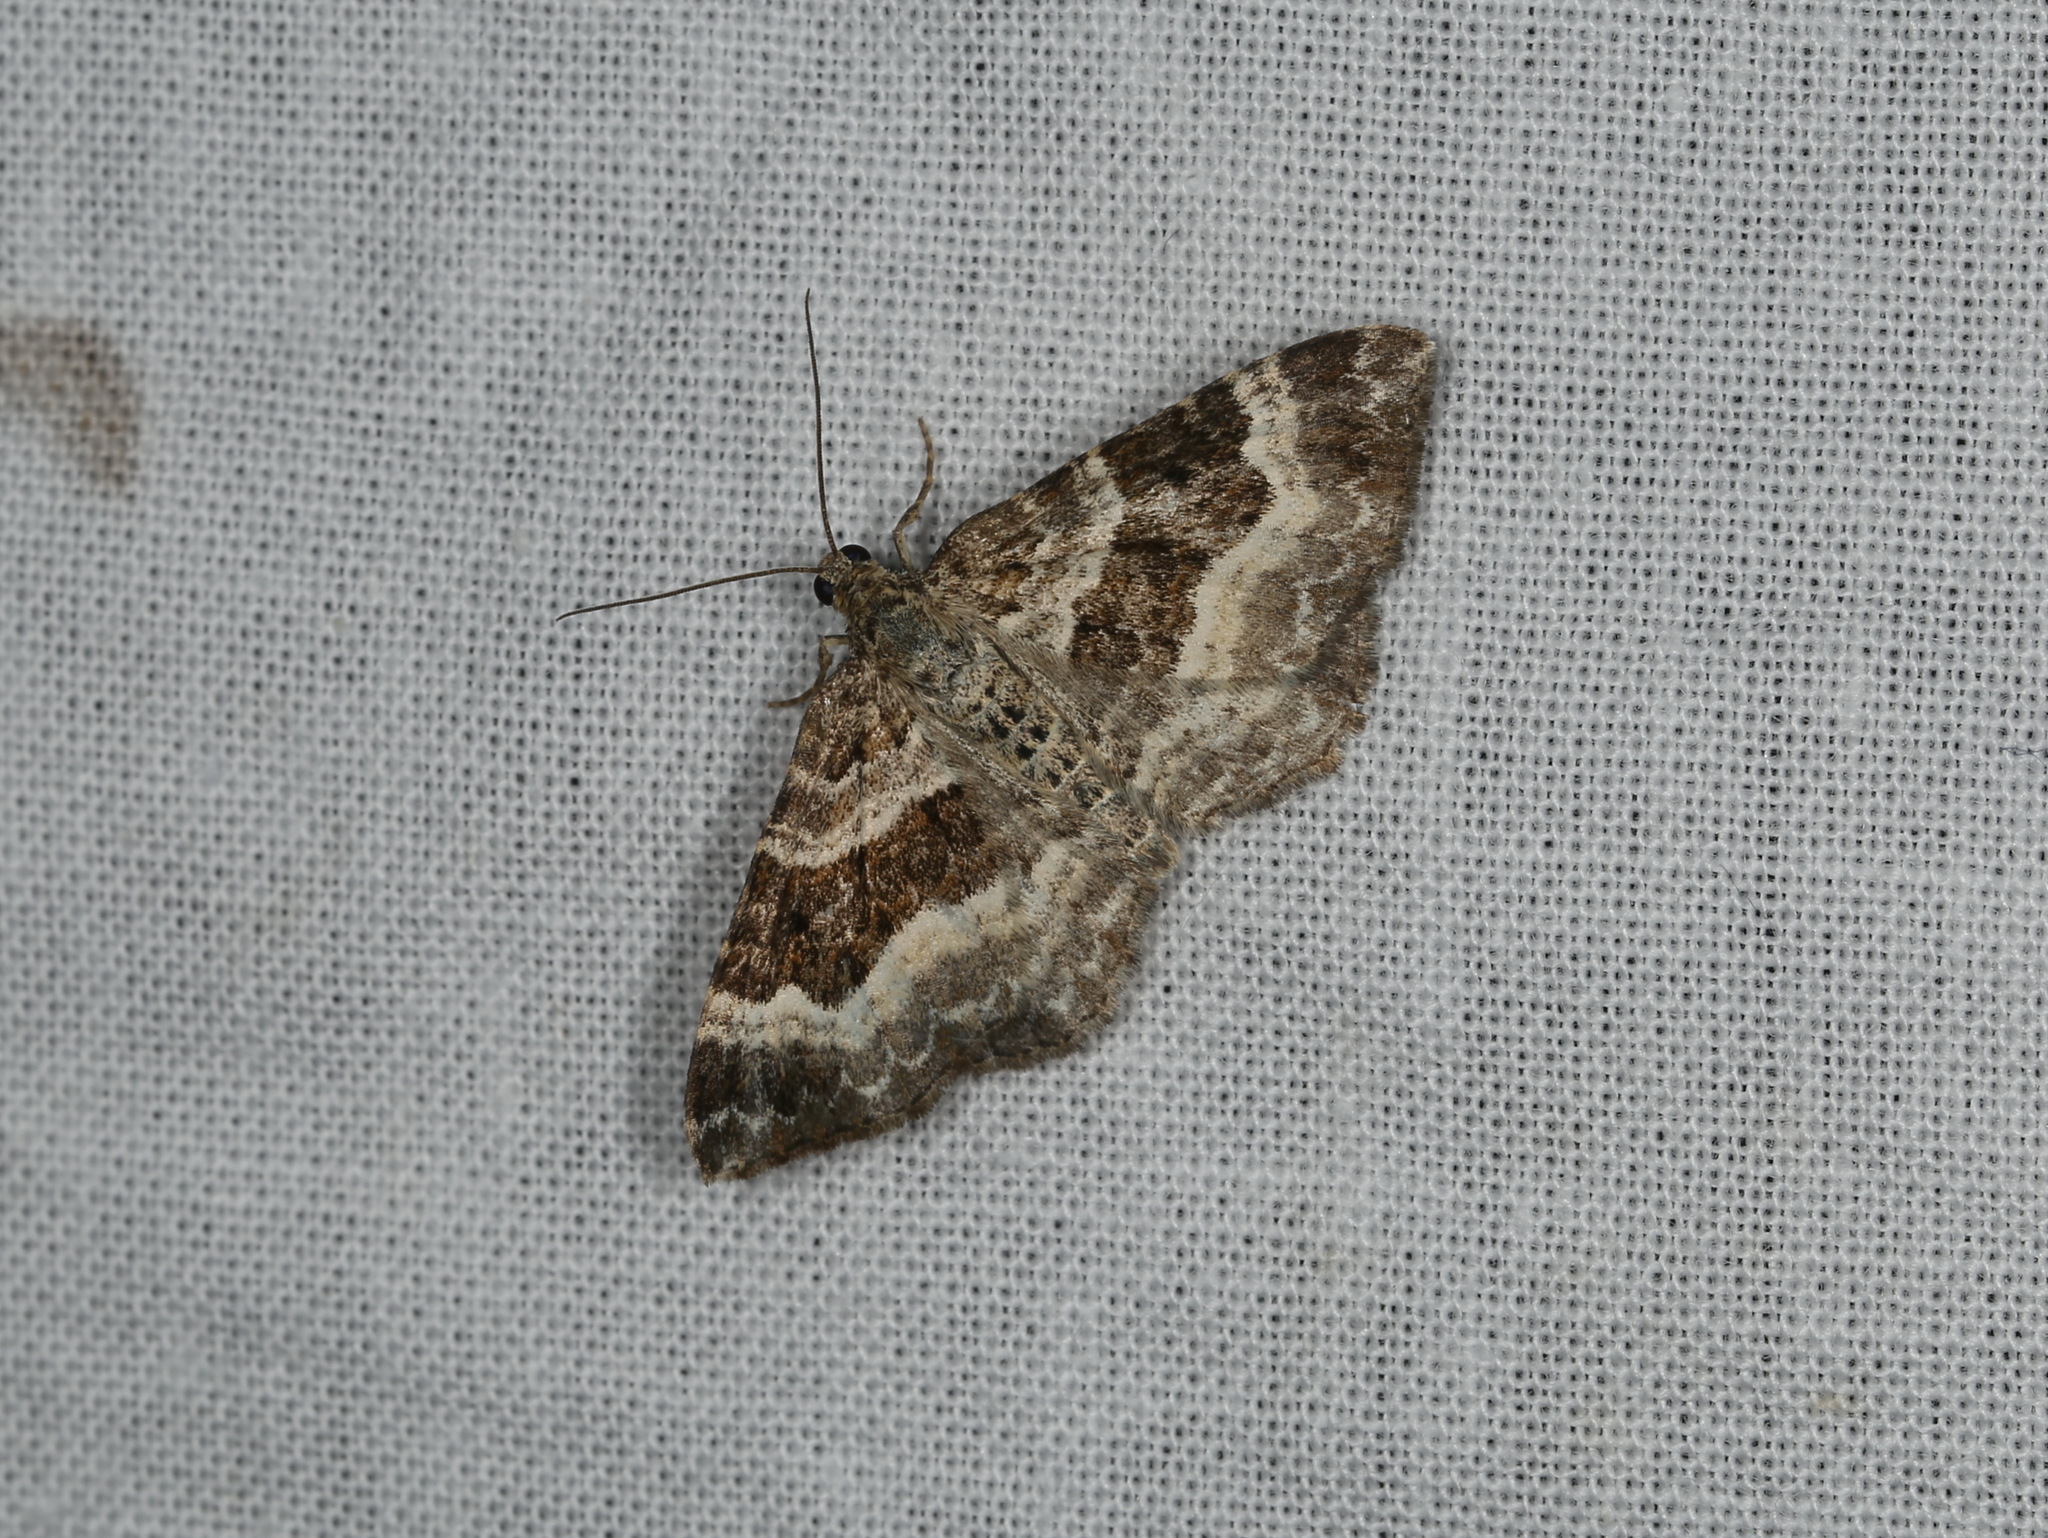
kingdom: Animalia
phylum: Arthropoda
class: Insecta
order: Lepidoptera
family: Geometridae
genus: Epirrhoe
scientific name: Epirrhoe alternata
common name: Common carpet
